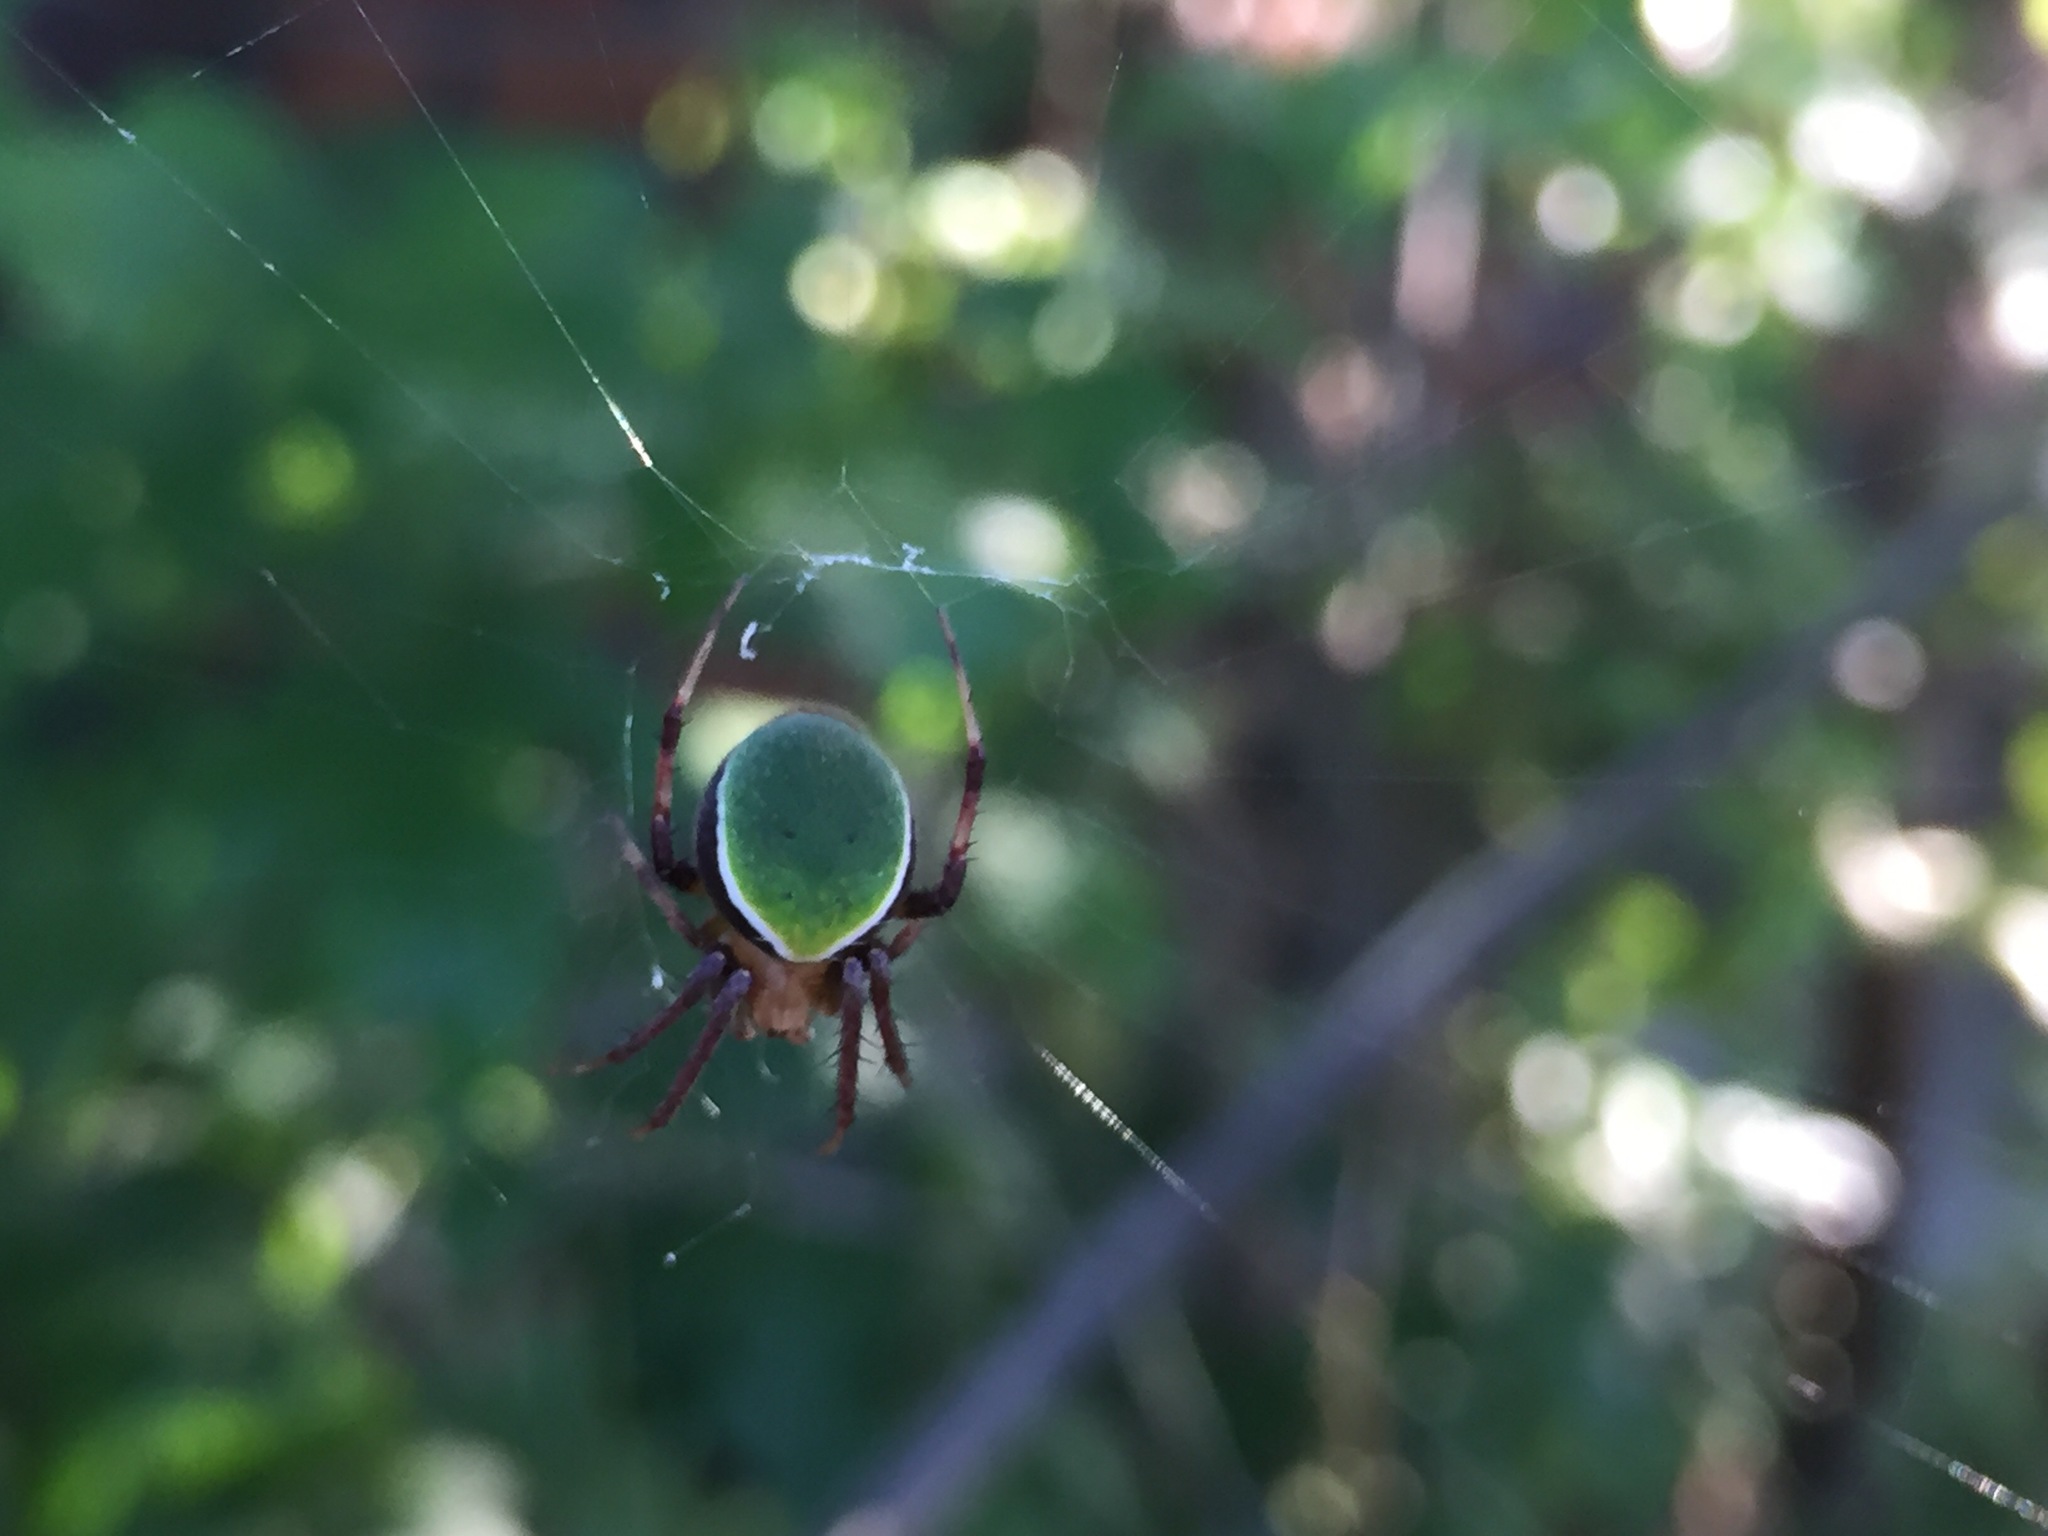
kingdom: Animalia
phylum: Arthropoda
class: Arachnida
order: Araneae
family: Araneidae
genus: Neoscona
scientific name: Neoscona mellotteei
